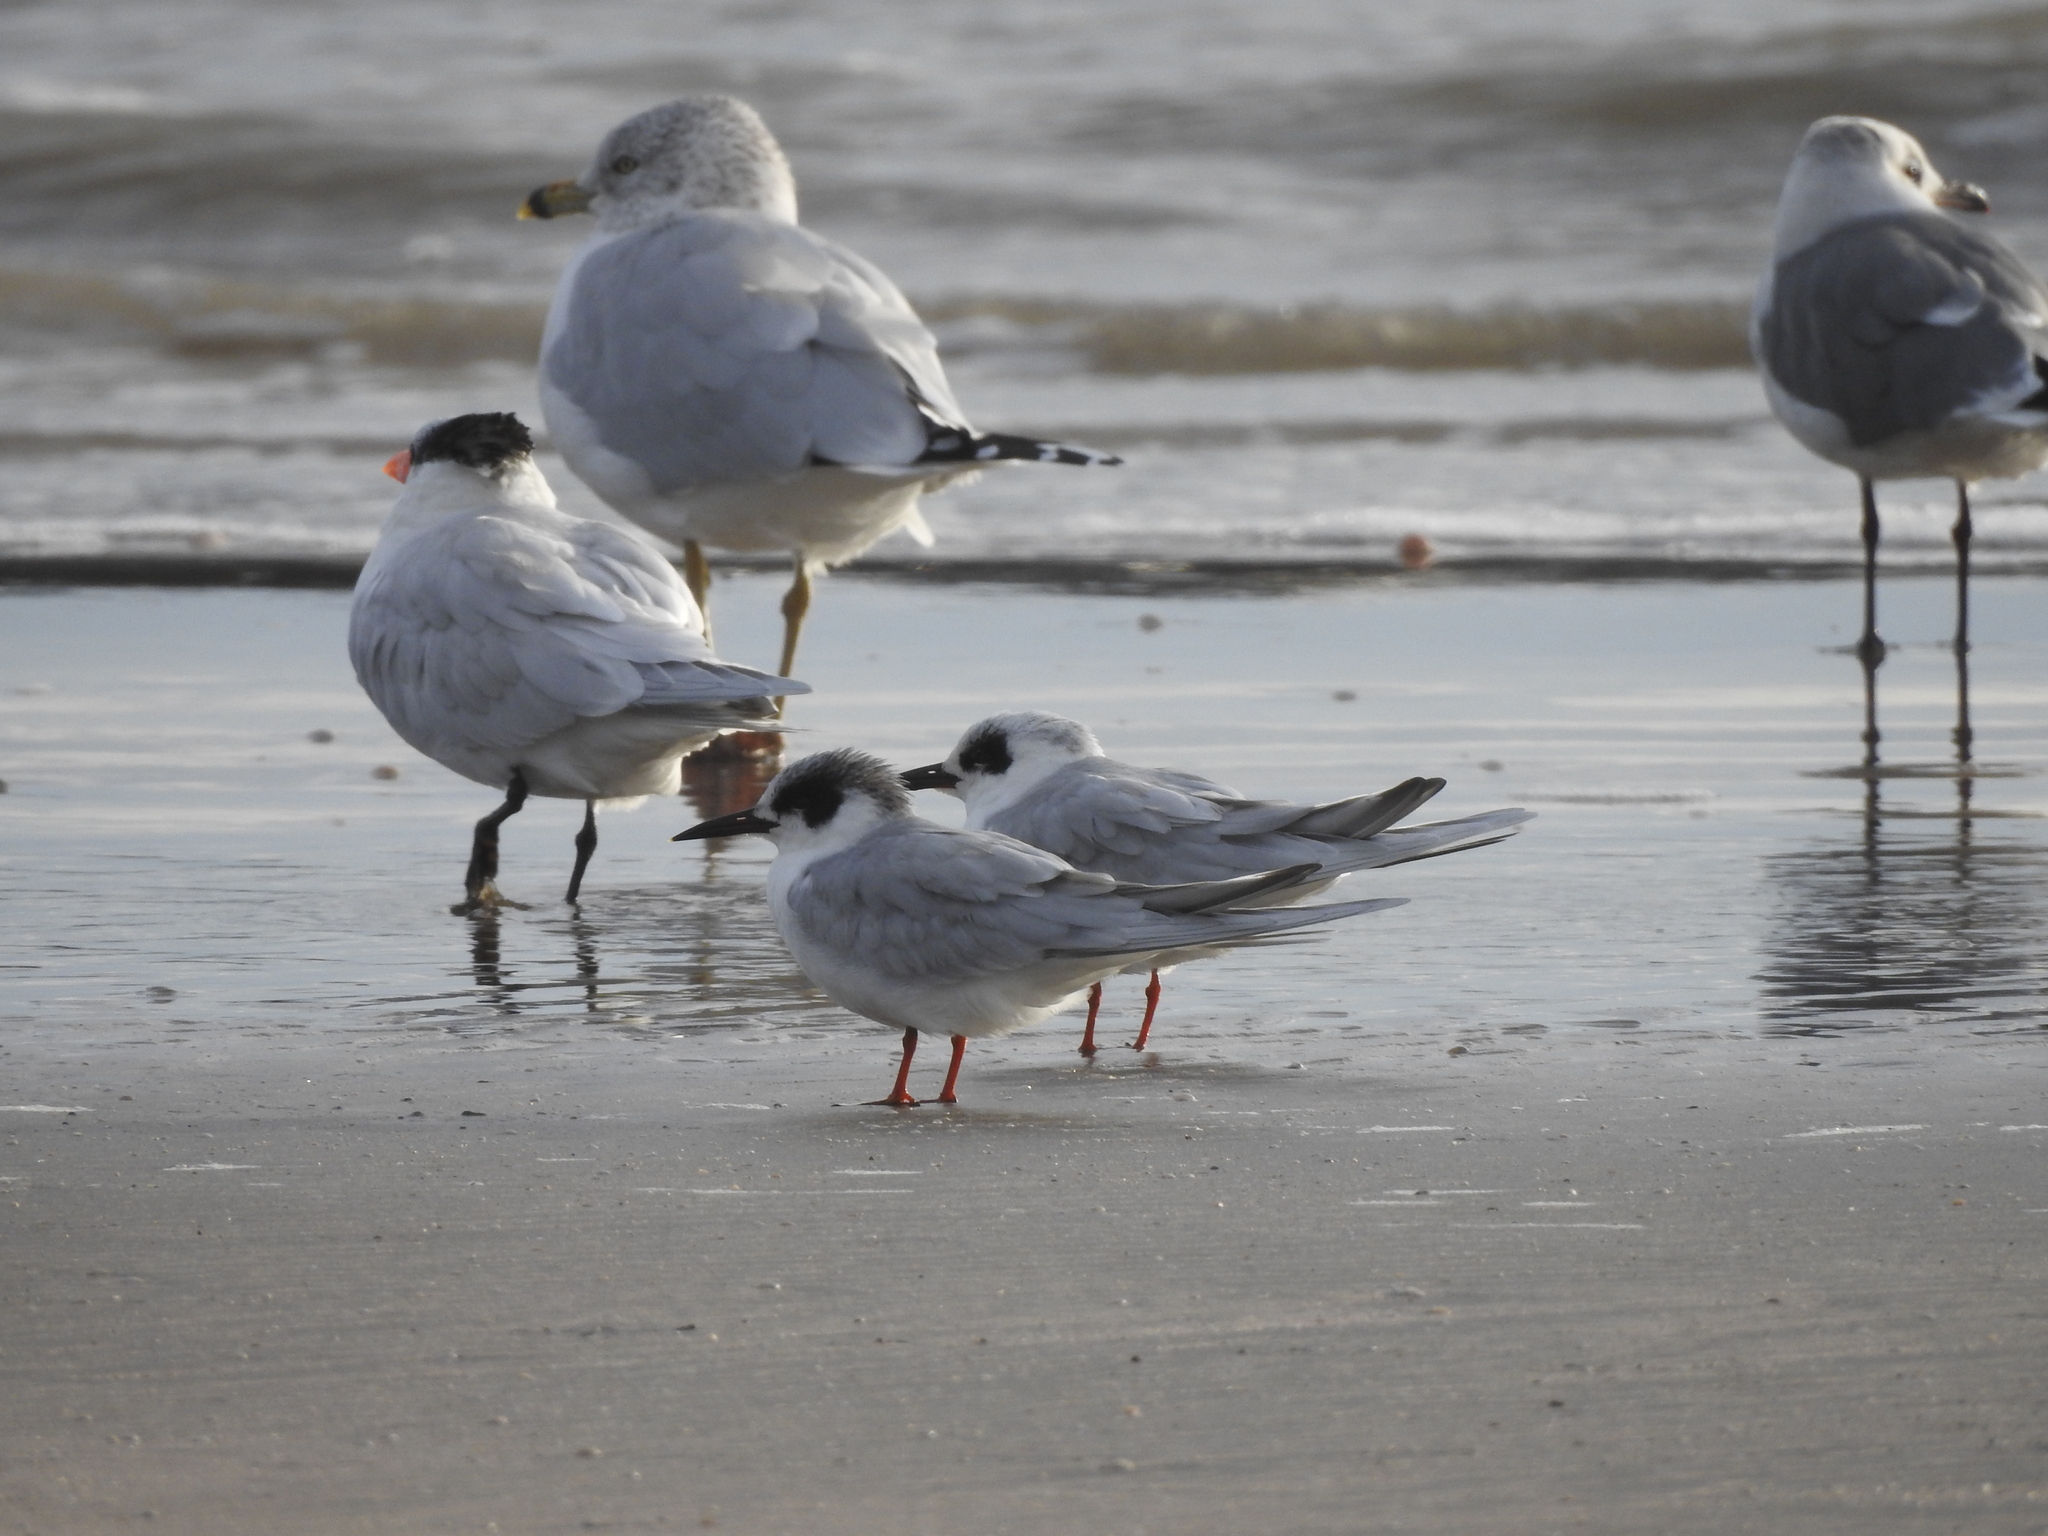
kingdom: Animalia
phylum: Chordata
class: Aves
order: Charadriiformes
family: Laridae
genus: Sterna
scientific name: Sterna forsteri
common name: Forster's tern
